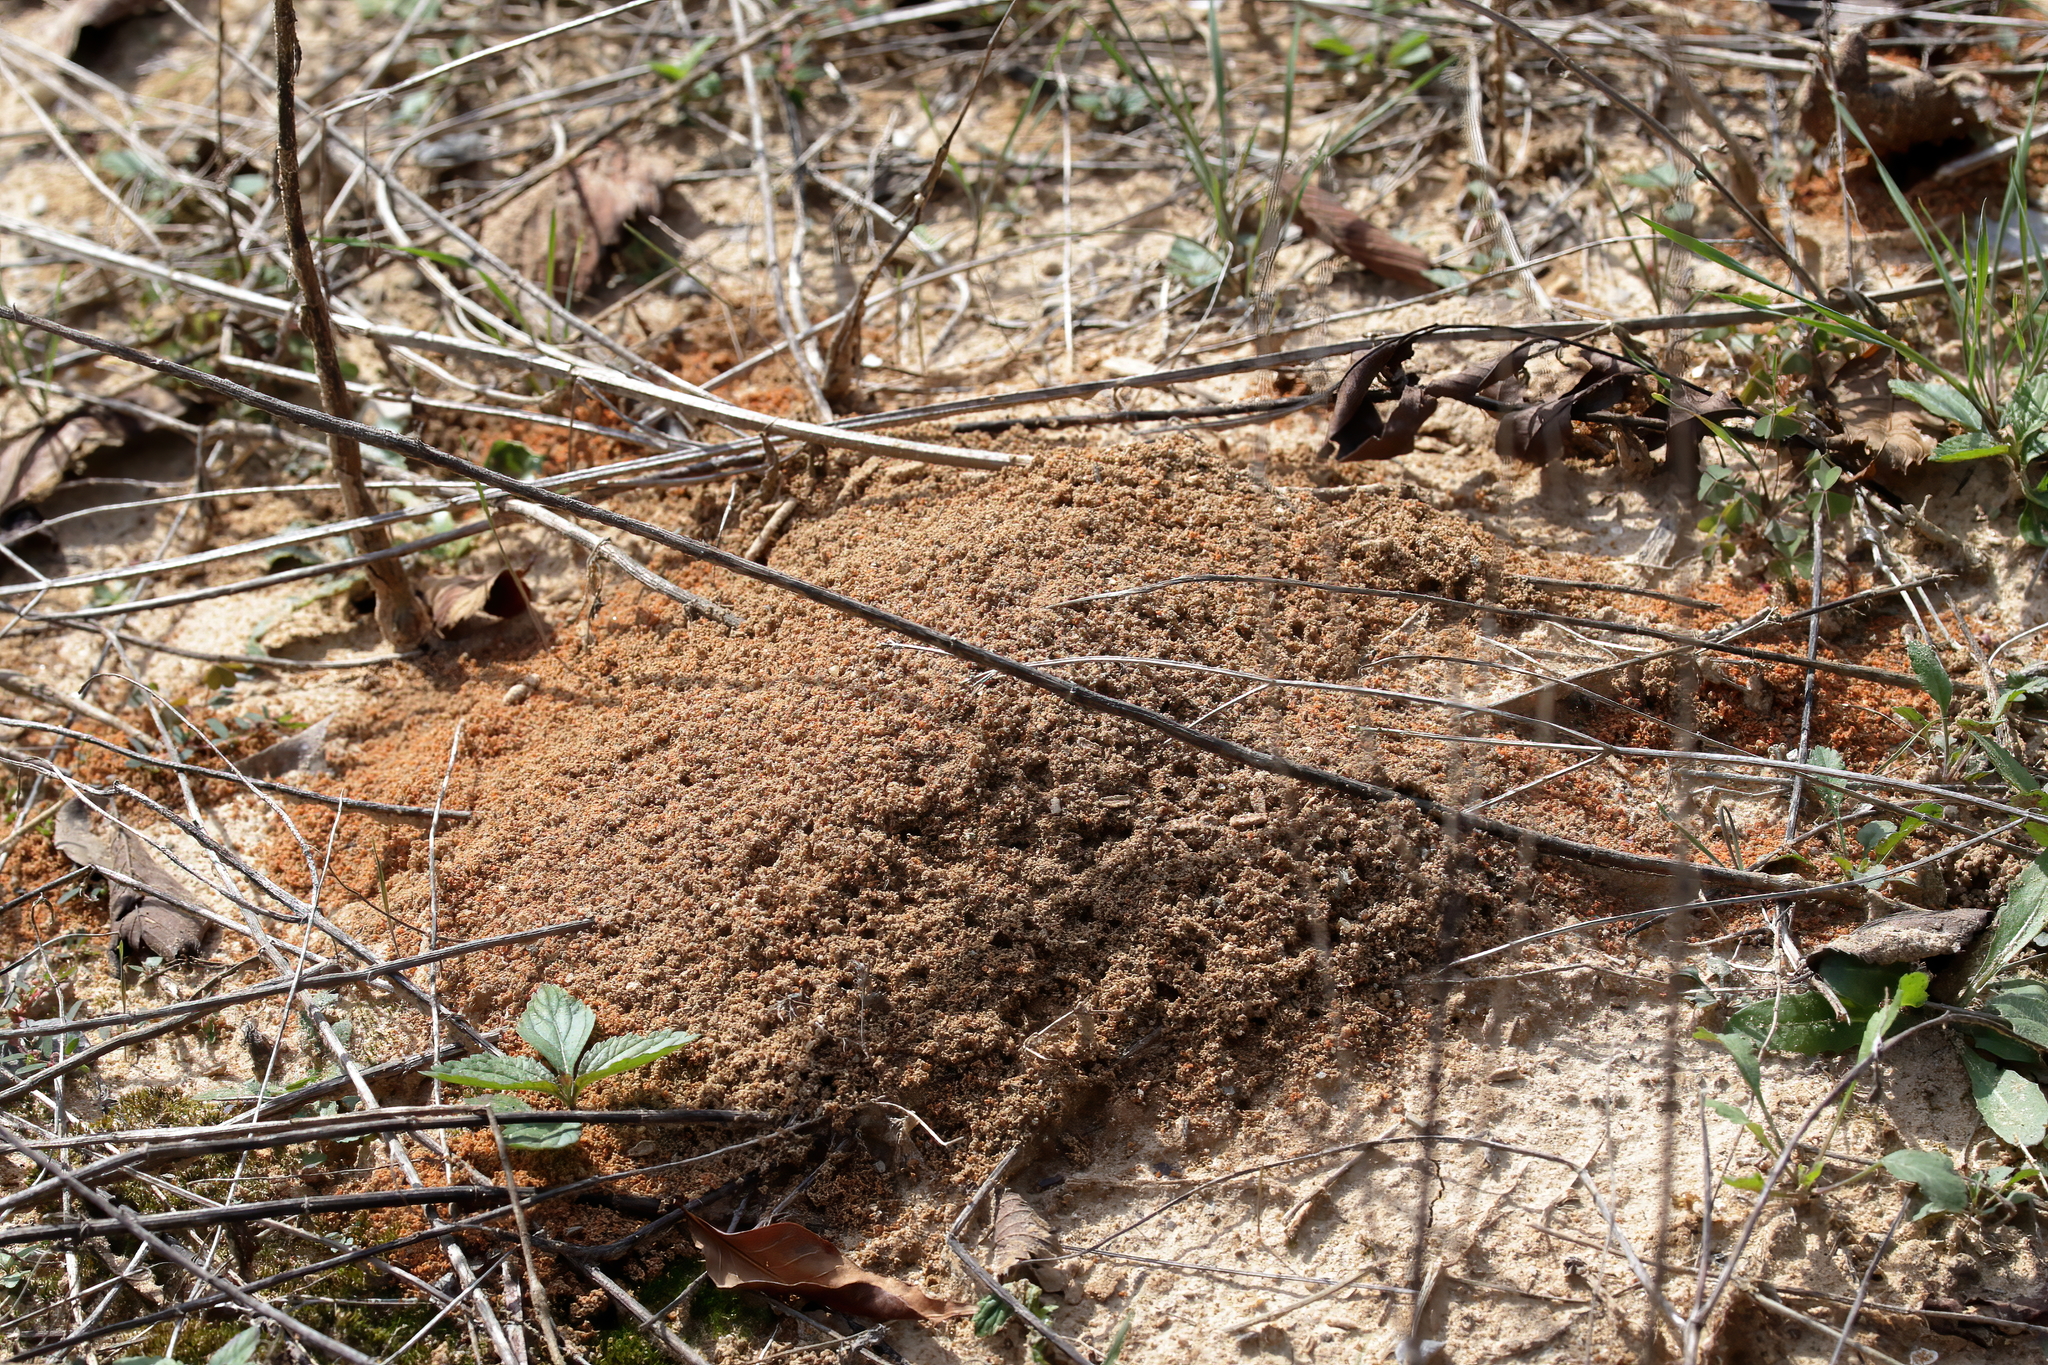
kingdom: Animalia
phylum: Arthropoda
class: Insecta
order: Hymenoptera
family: Formicidae
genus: Solenopsis
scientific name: Solenopsis invicta
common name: Red imported fire ant
